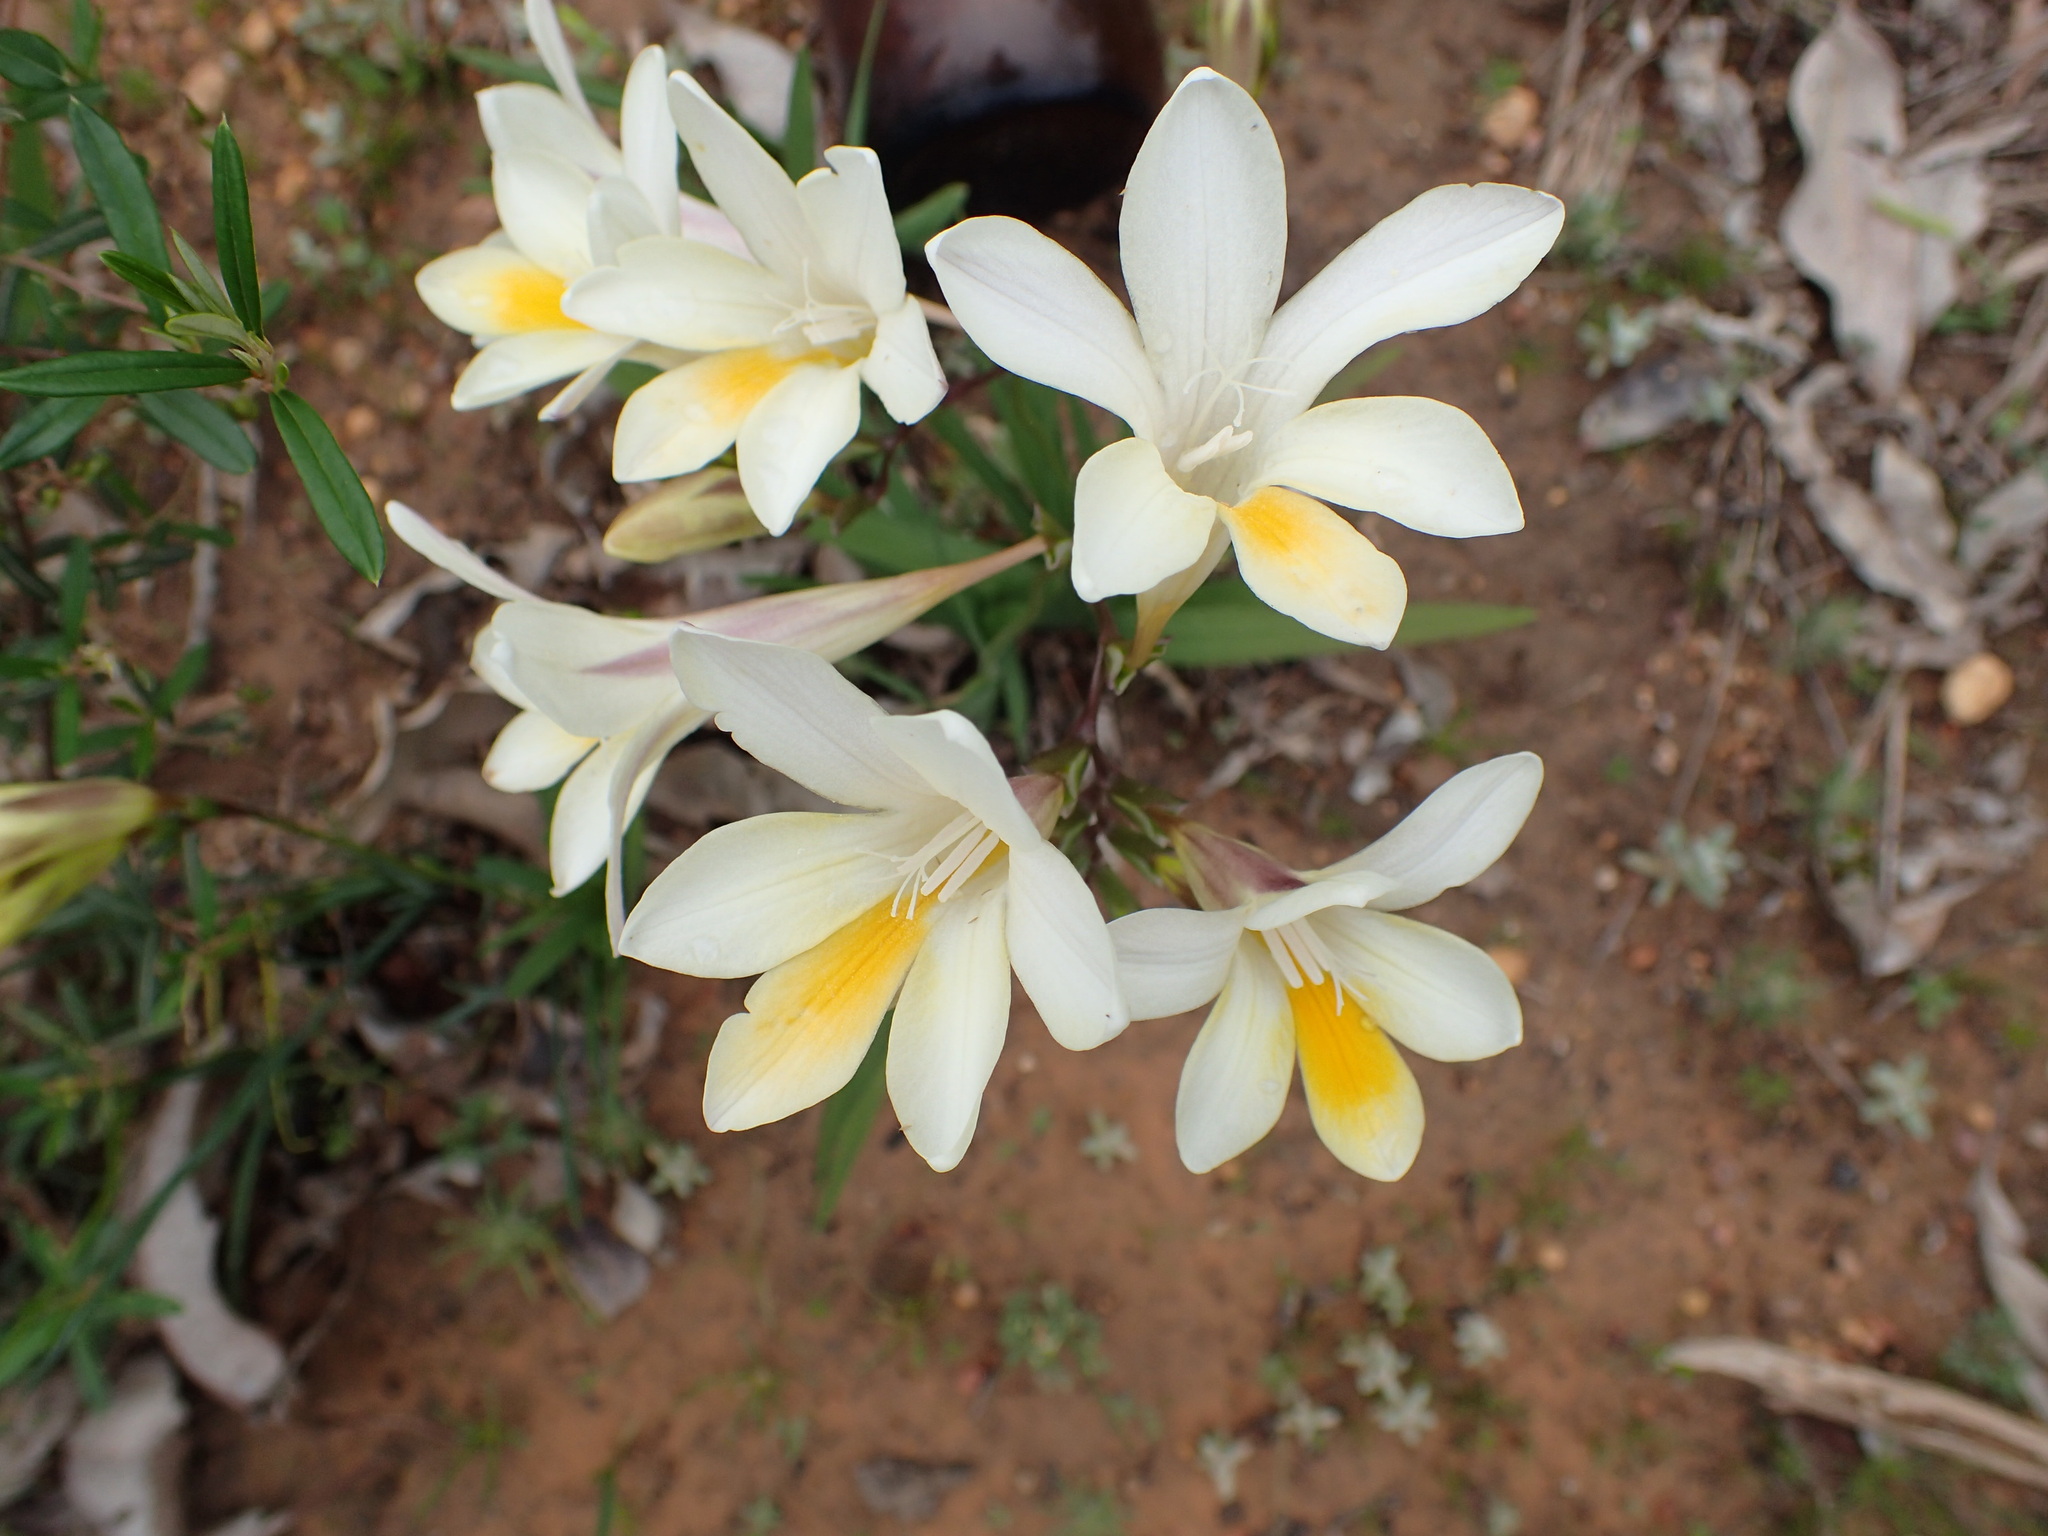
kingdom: Plantae
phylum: Tracheophyta
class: Liliopsida
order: Asparagales
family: Iridaceae
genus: Freesia
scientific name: Freesia leichtlinii
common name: Freesia
